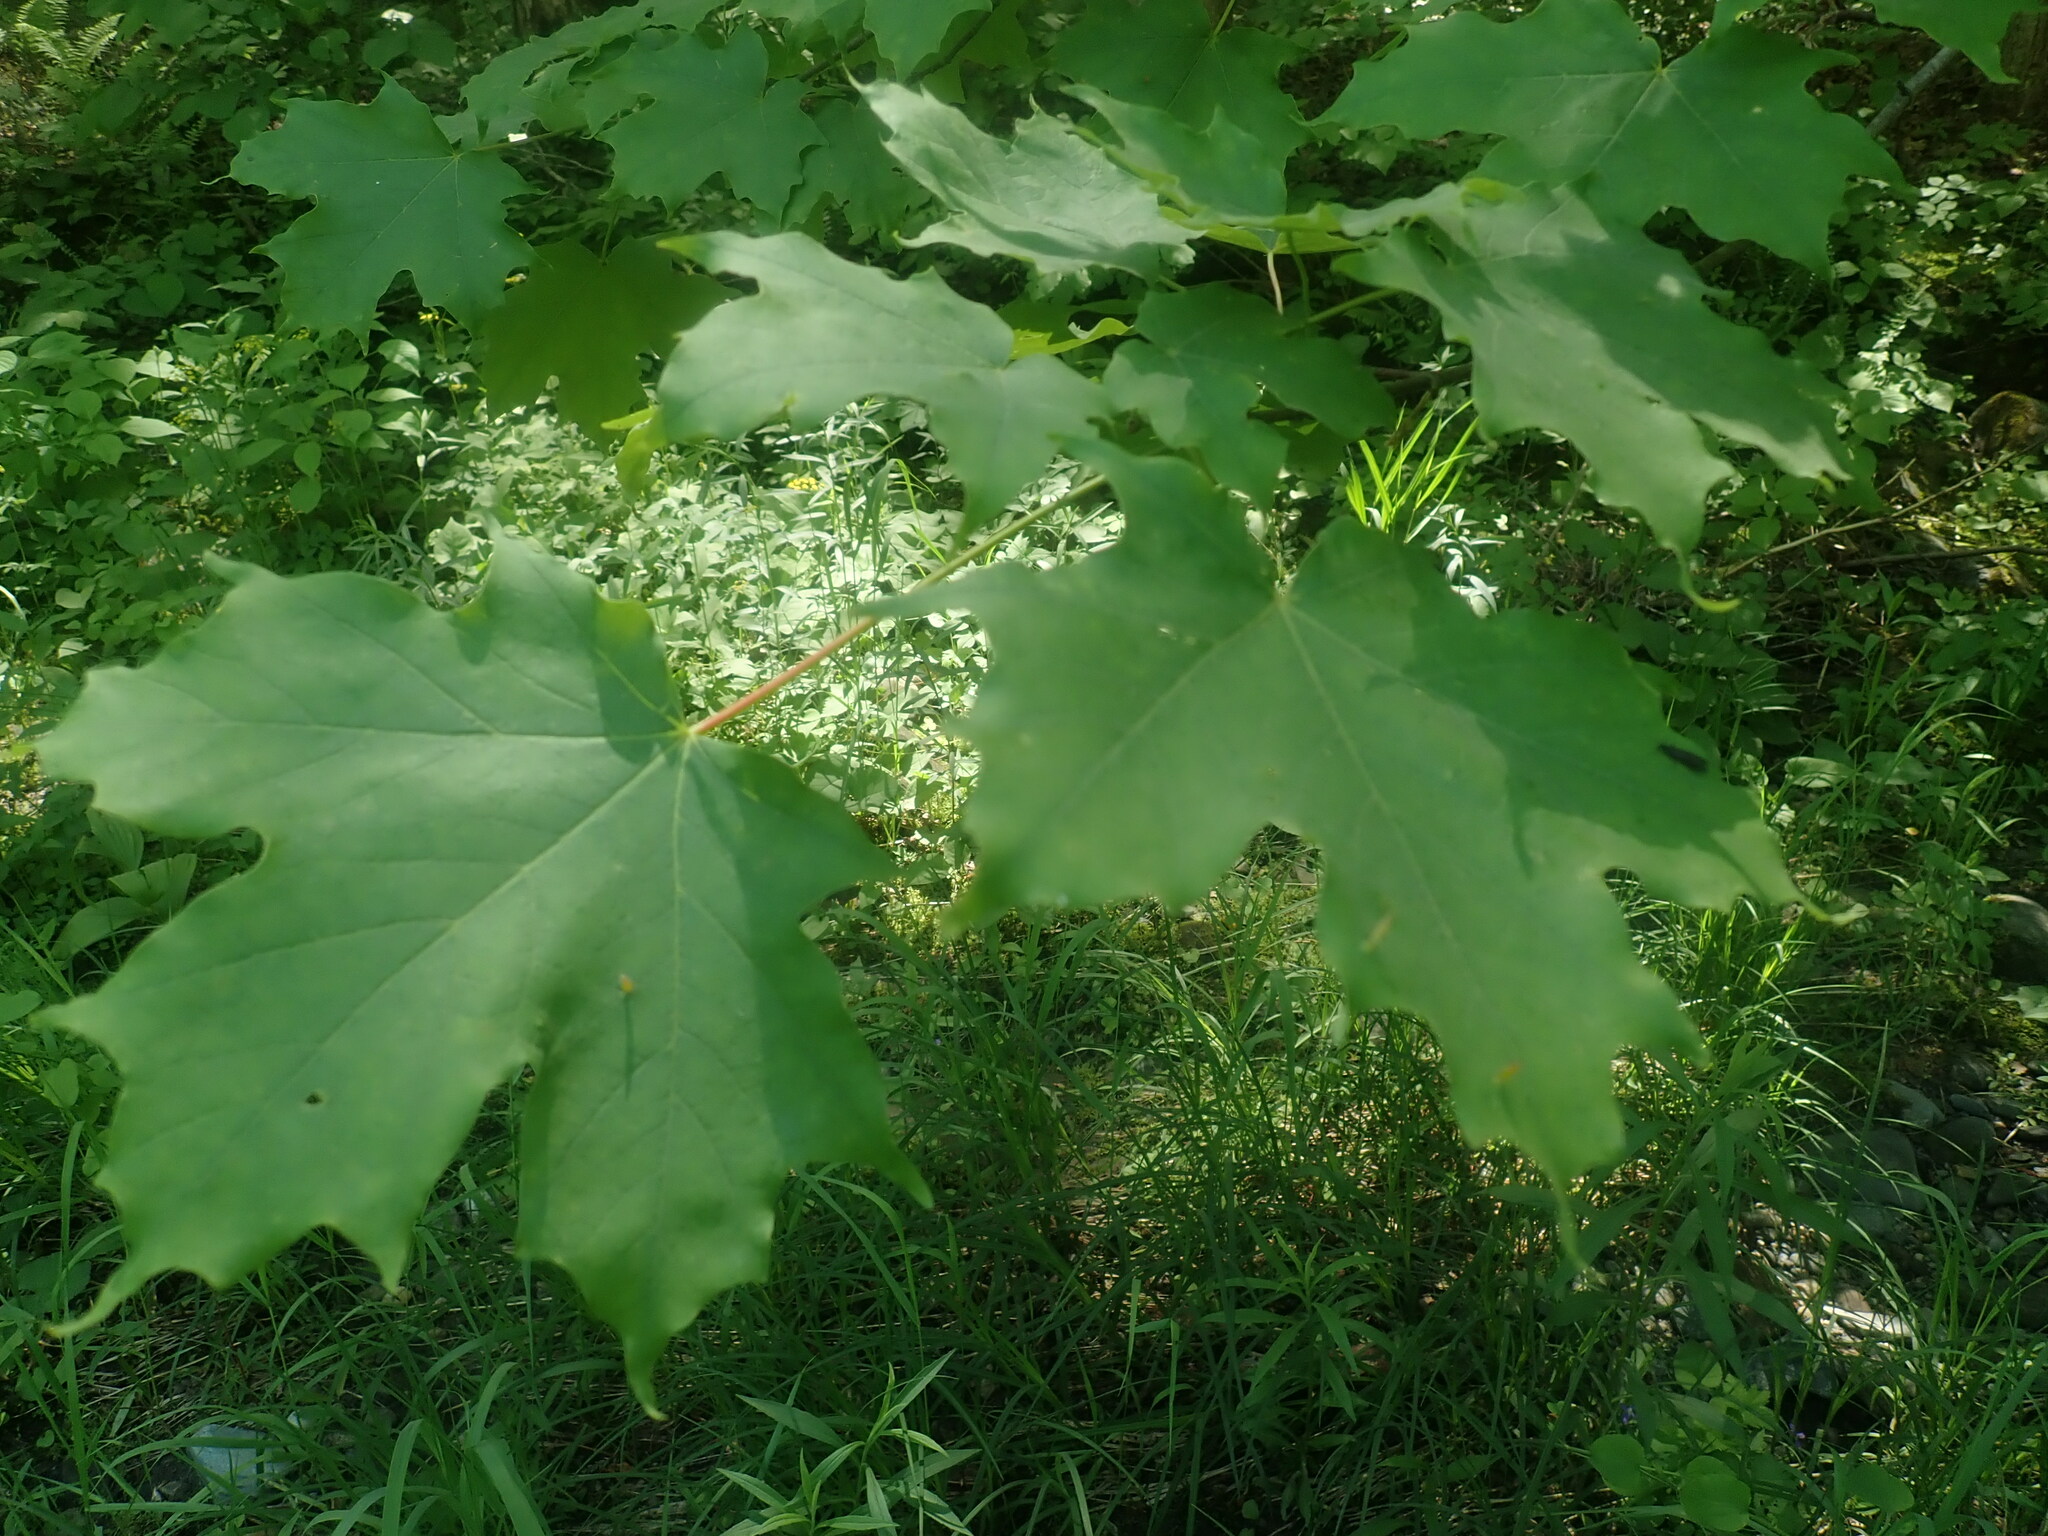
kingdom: Plantae
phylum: Tracheophyta
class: Magnoliopsida
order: Sapindales
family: Sapindaceae
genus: Acer
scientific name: Acer saccharum
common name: Sugar maple
